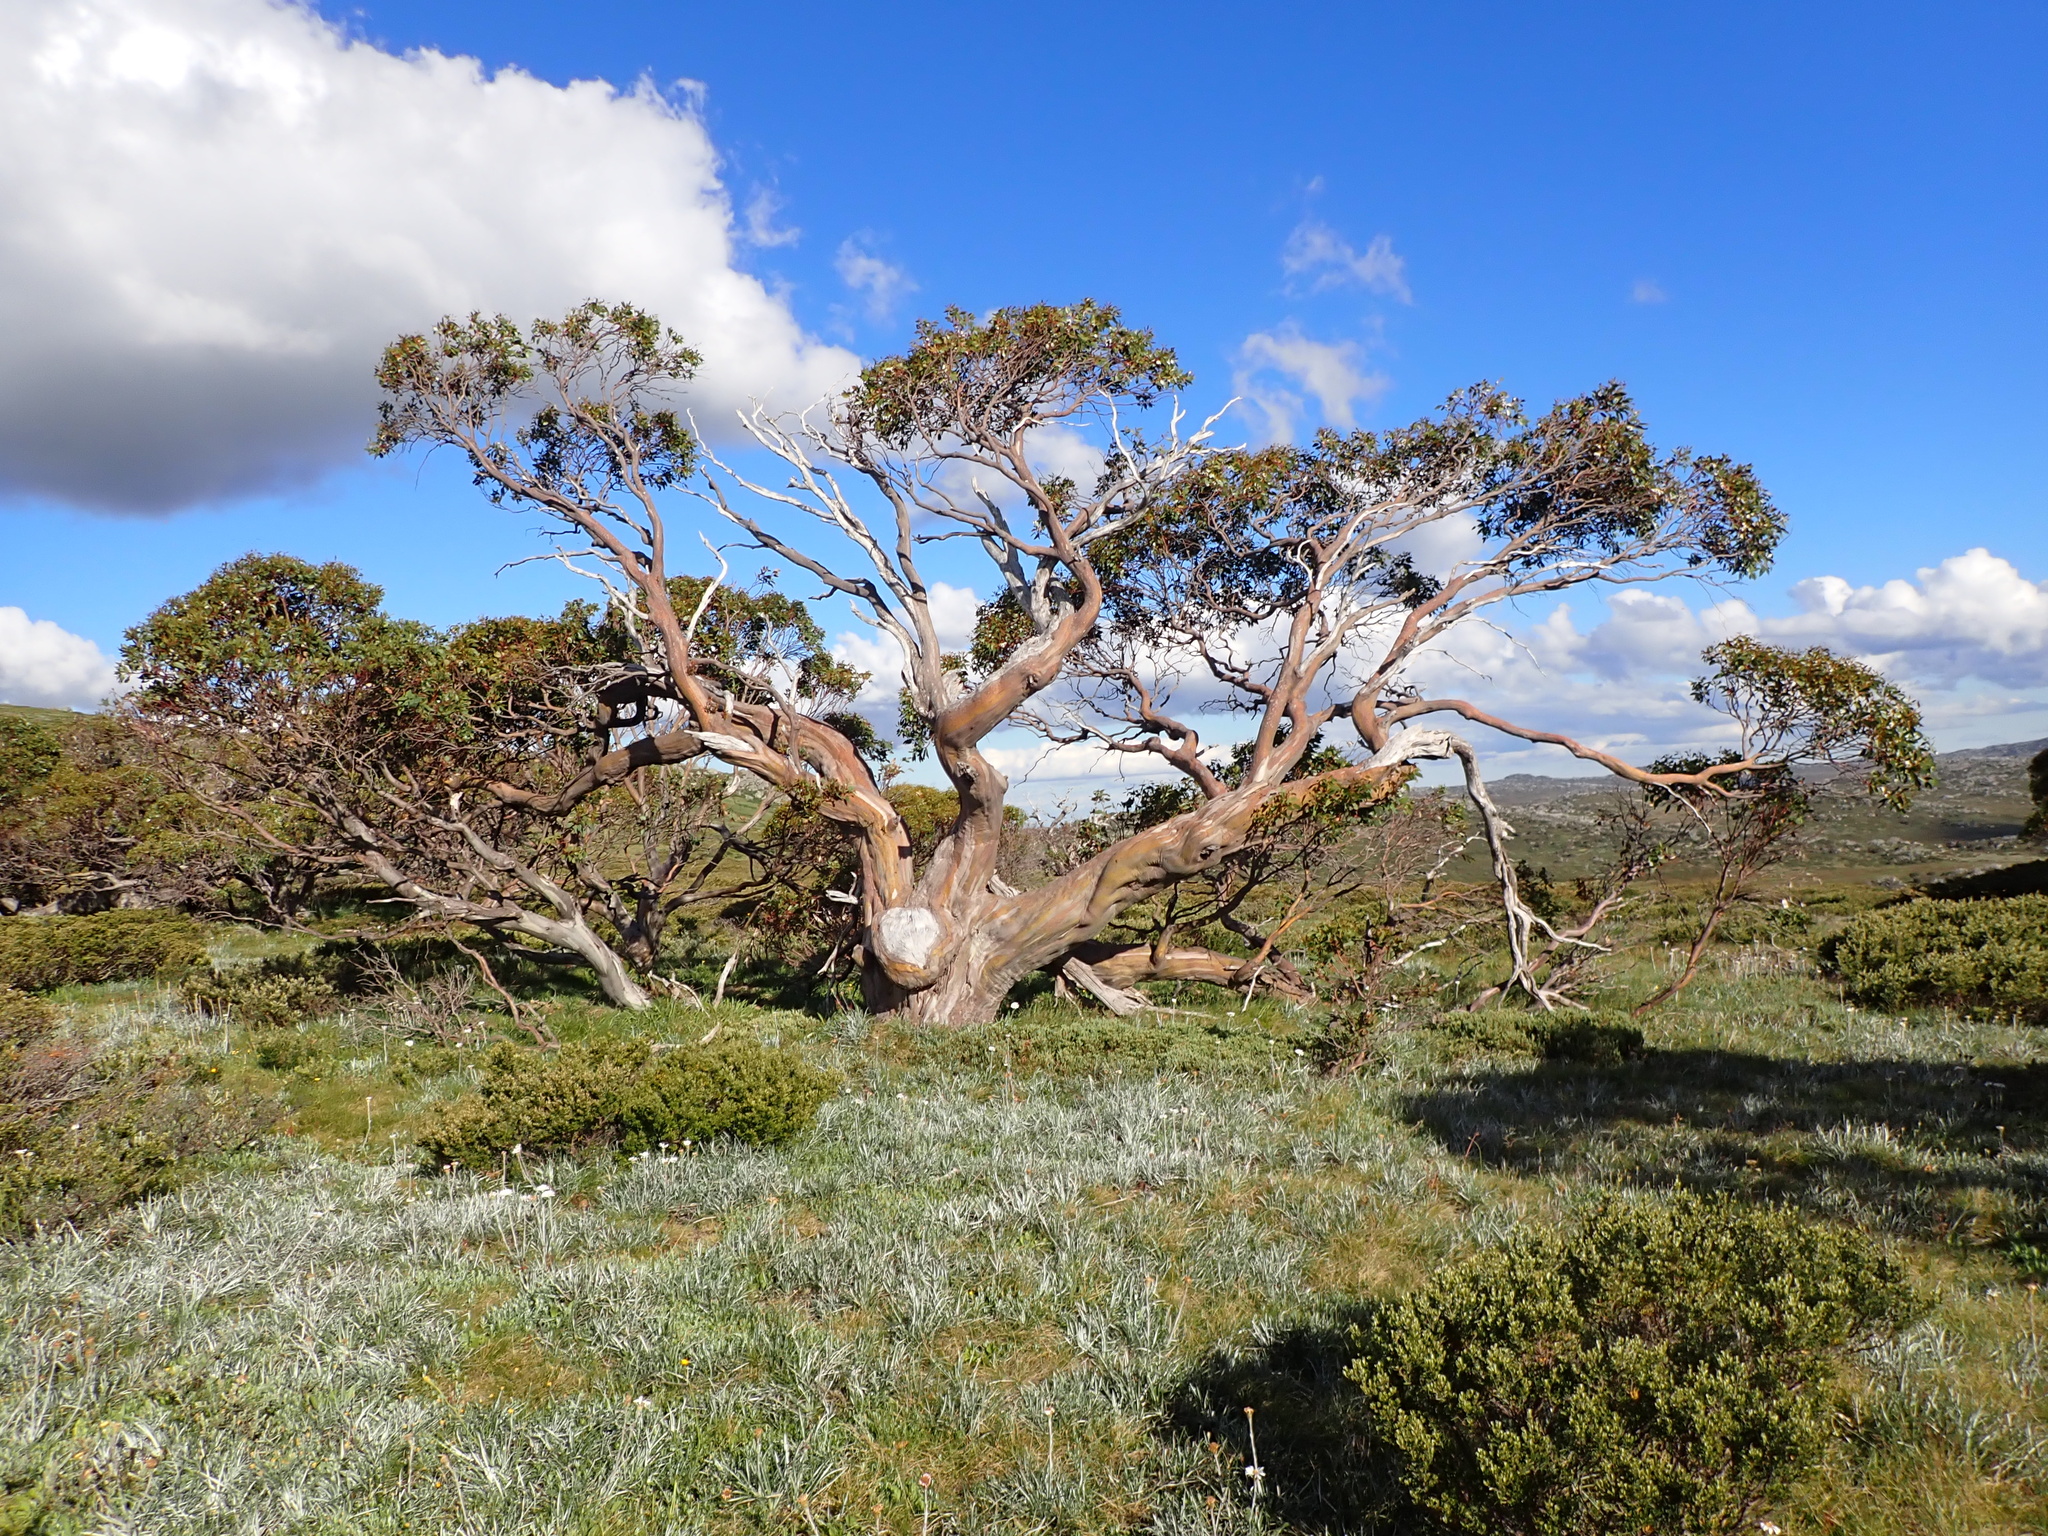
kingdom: Plantae
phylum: Tracheophyta
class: Magnoliopsida
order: Myrtales
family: Myrtaceae
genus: Eucalyptus
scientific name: Eucalyptus pauciflora
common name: Snow gum
